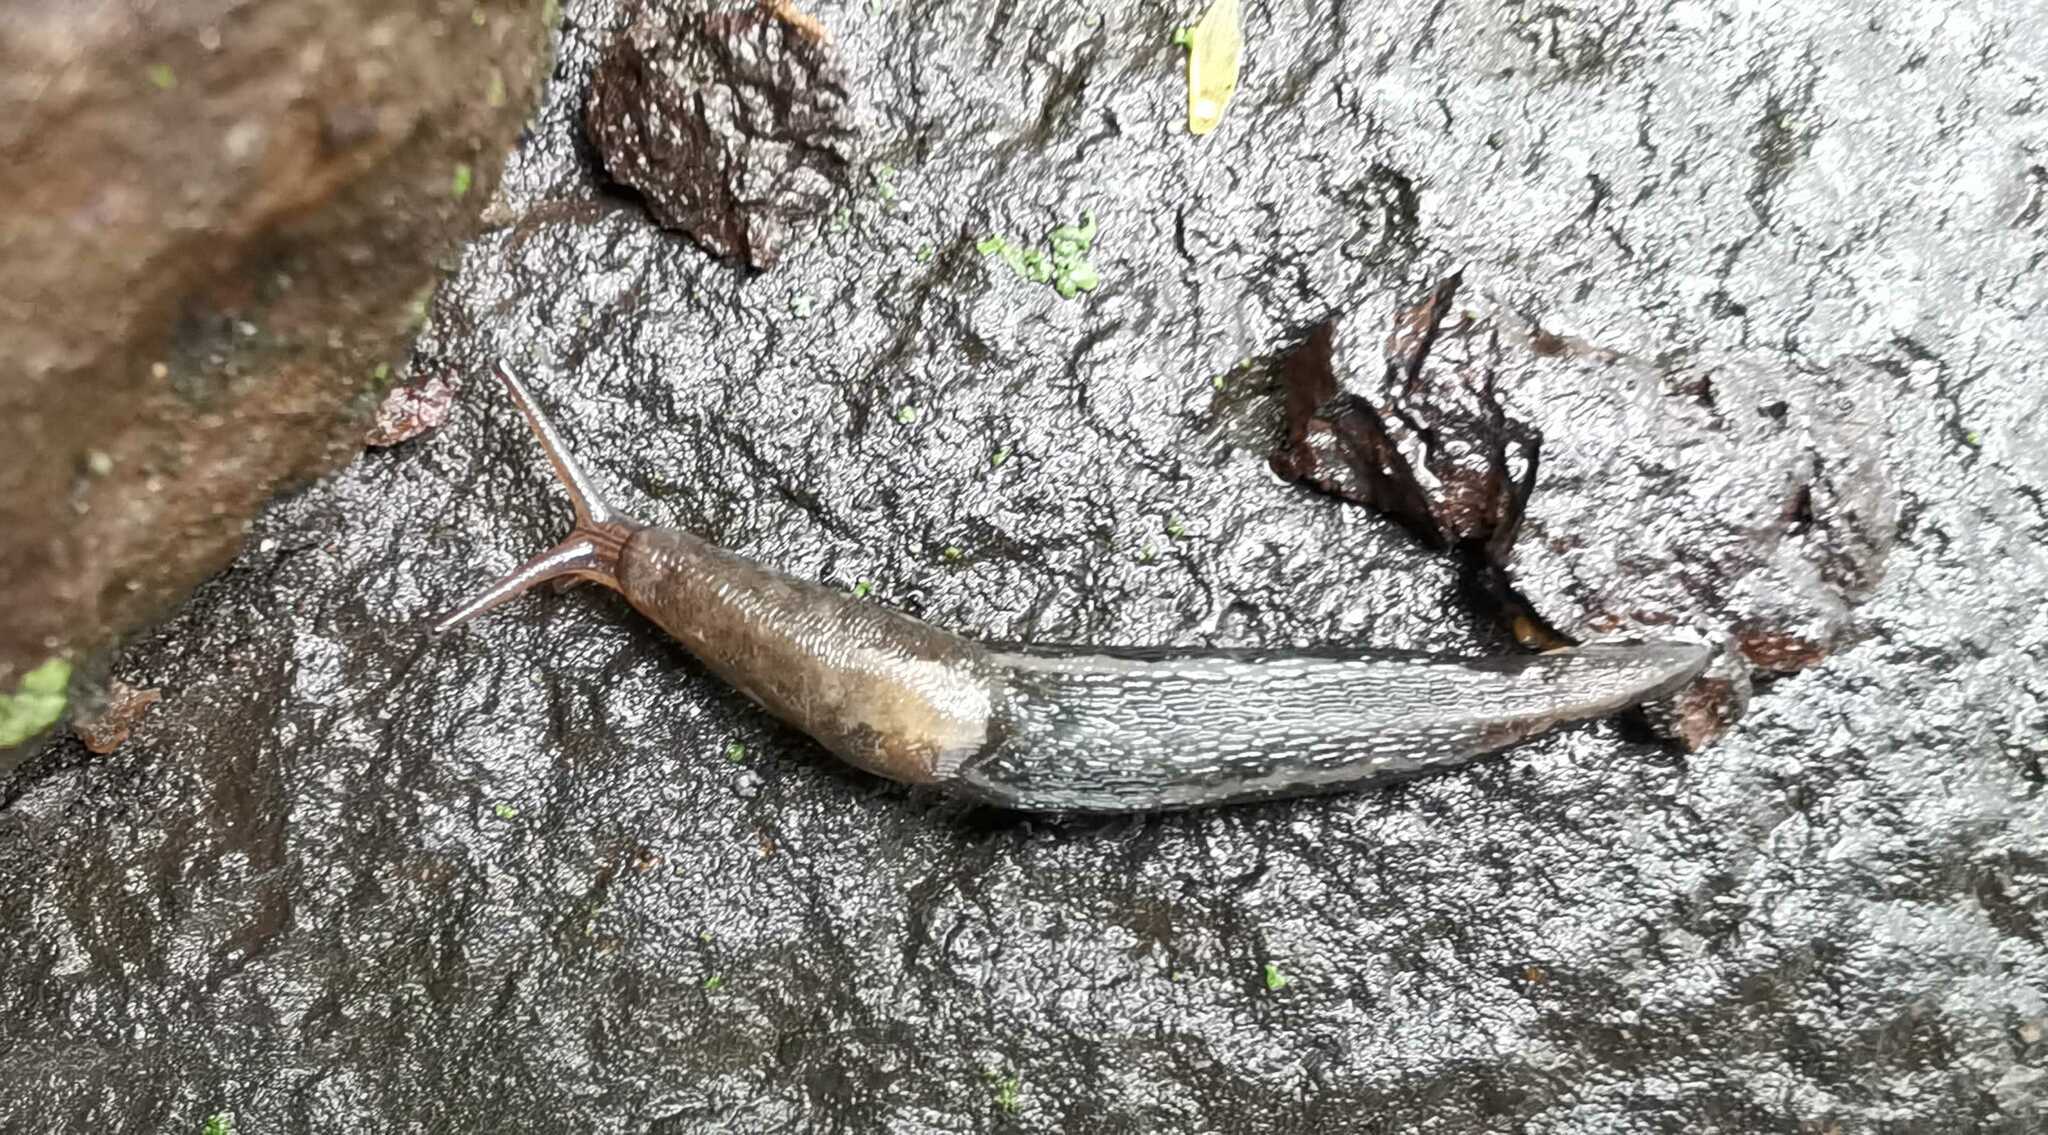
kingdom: Animalia
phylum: Mollusca
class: Gastropoda
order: Stylommatophora
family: Limacidae
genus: Limax
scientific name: Limax maximus
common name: Great grey slug
